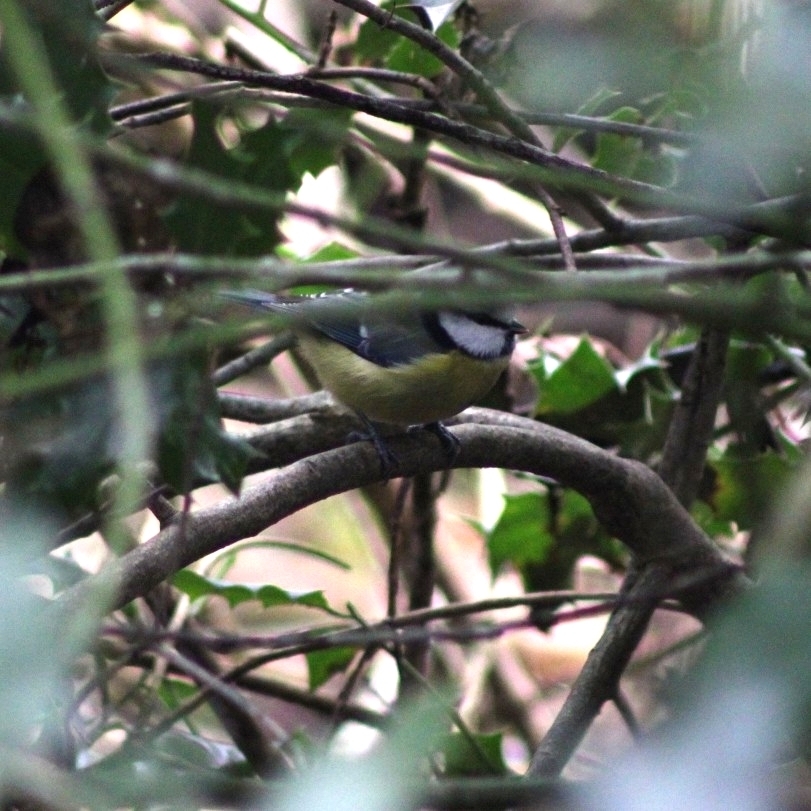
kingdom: Animalia
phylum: Chordata
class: Aves
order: Passeriformes
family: Paridae
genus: Cyanistes
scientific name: Cyanistes caeruleus
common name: Eurasian blue tit
